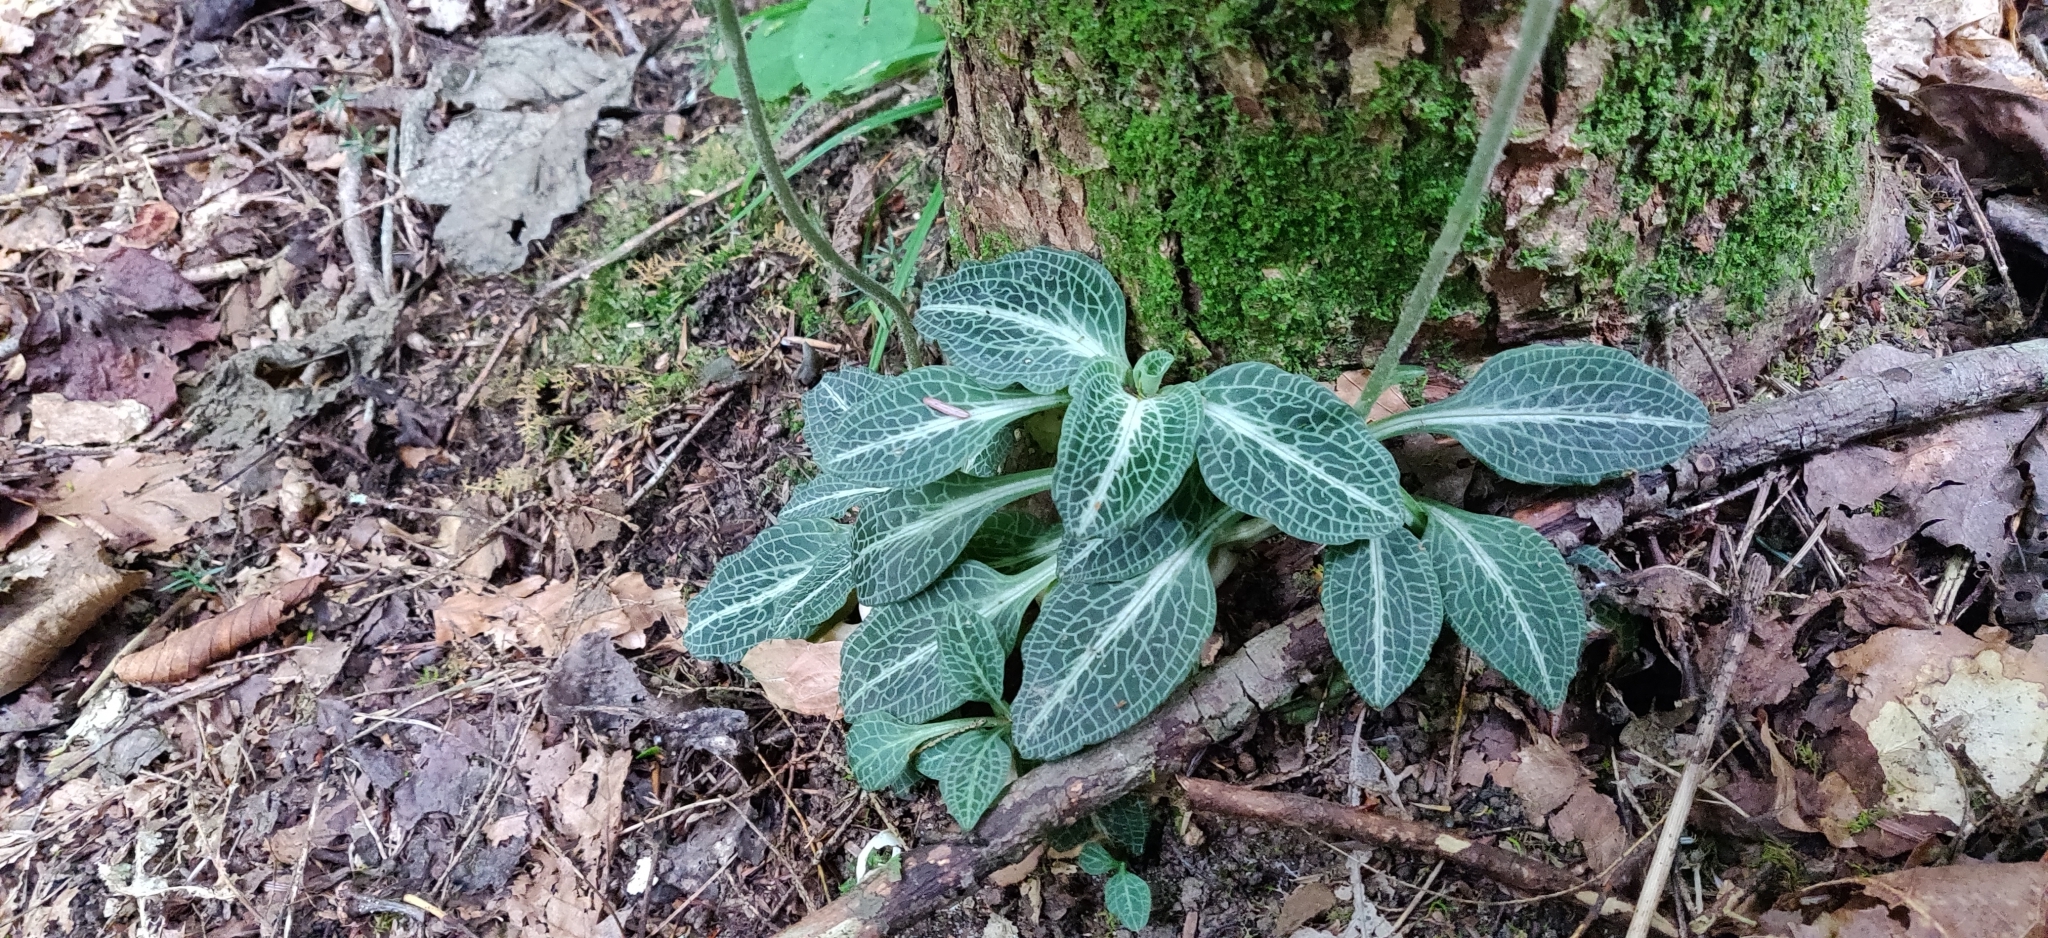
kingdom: Plantae
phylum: Tracheophyta
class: Liliopsida
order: Asparagales
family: Orchidaceae
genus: Goodyera
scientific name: Goodyera pubescens
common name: Downy rattlesnake-plantain
